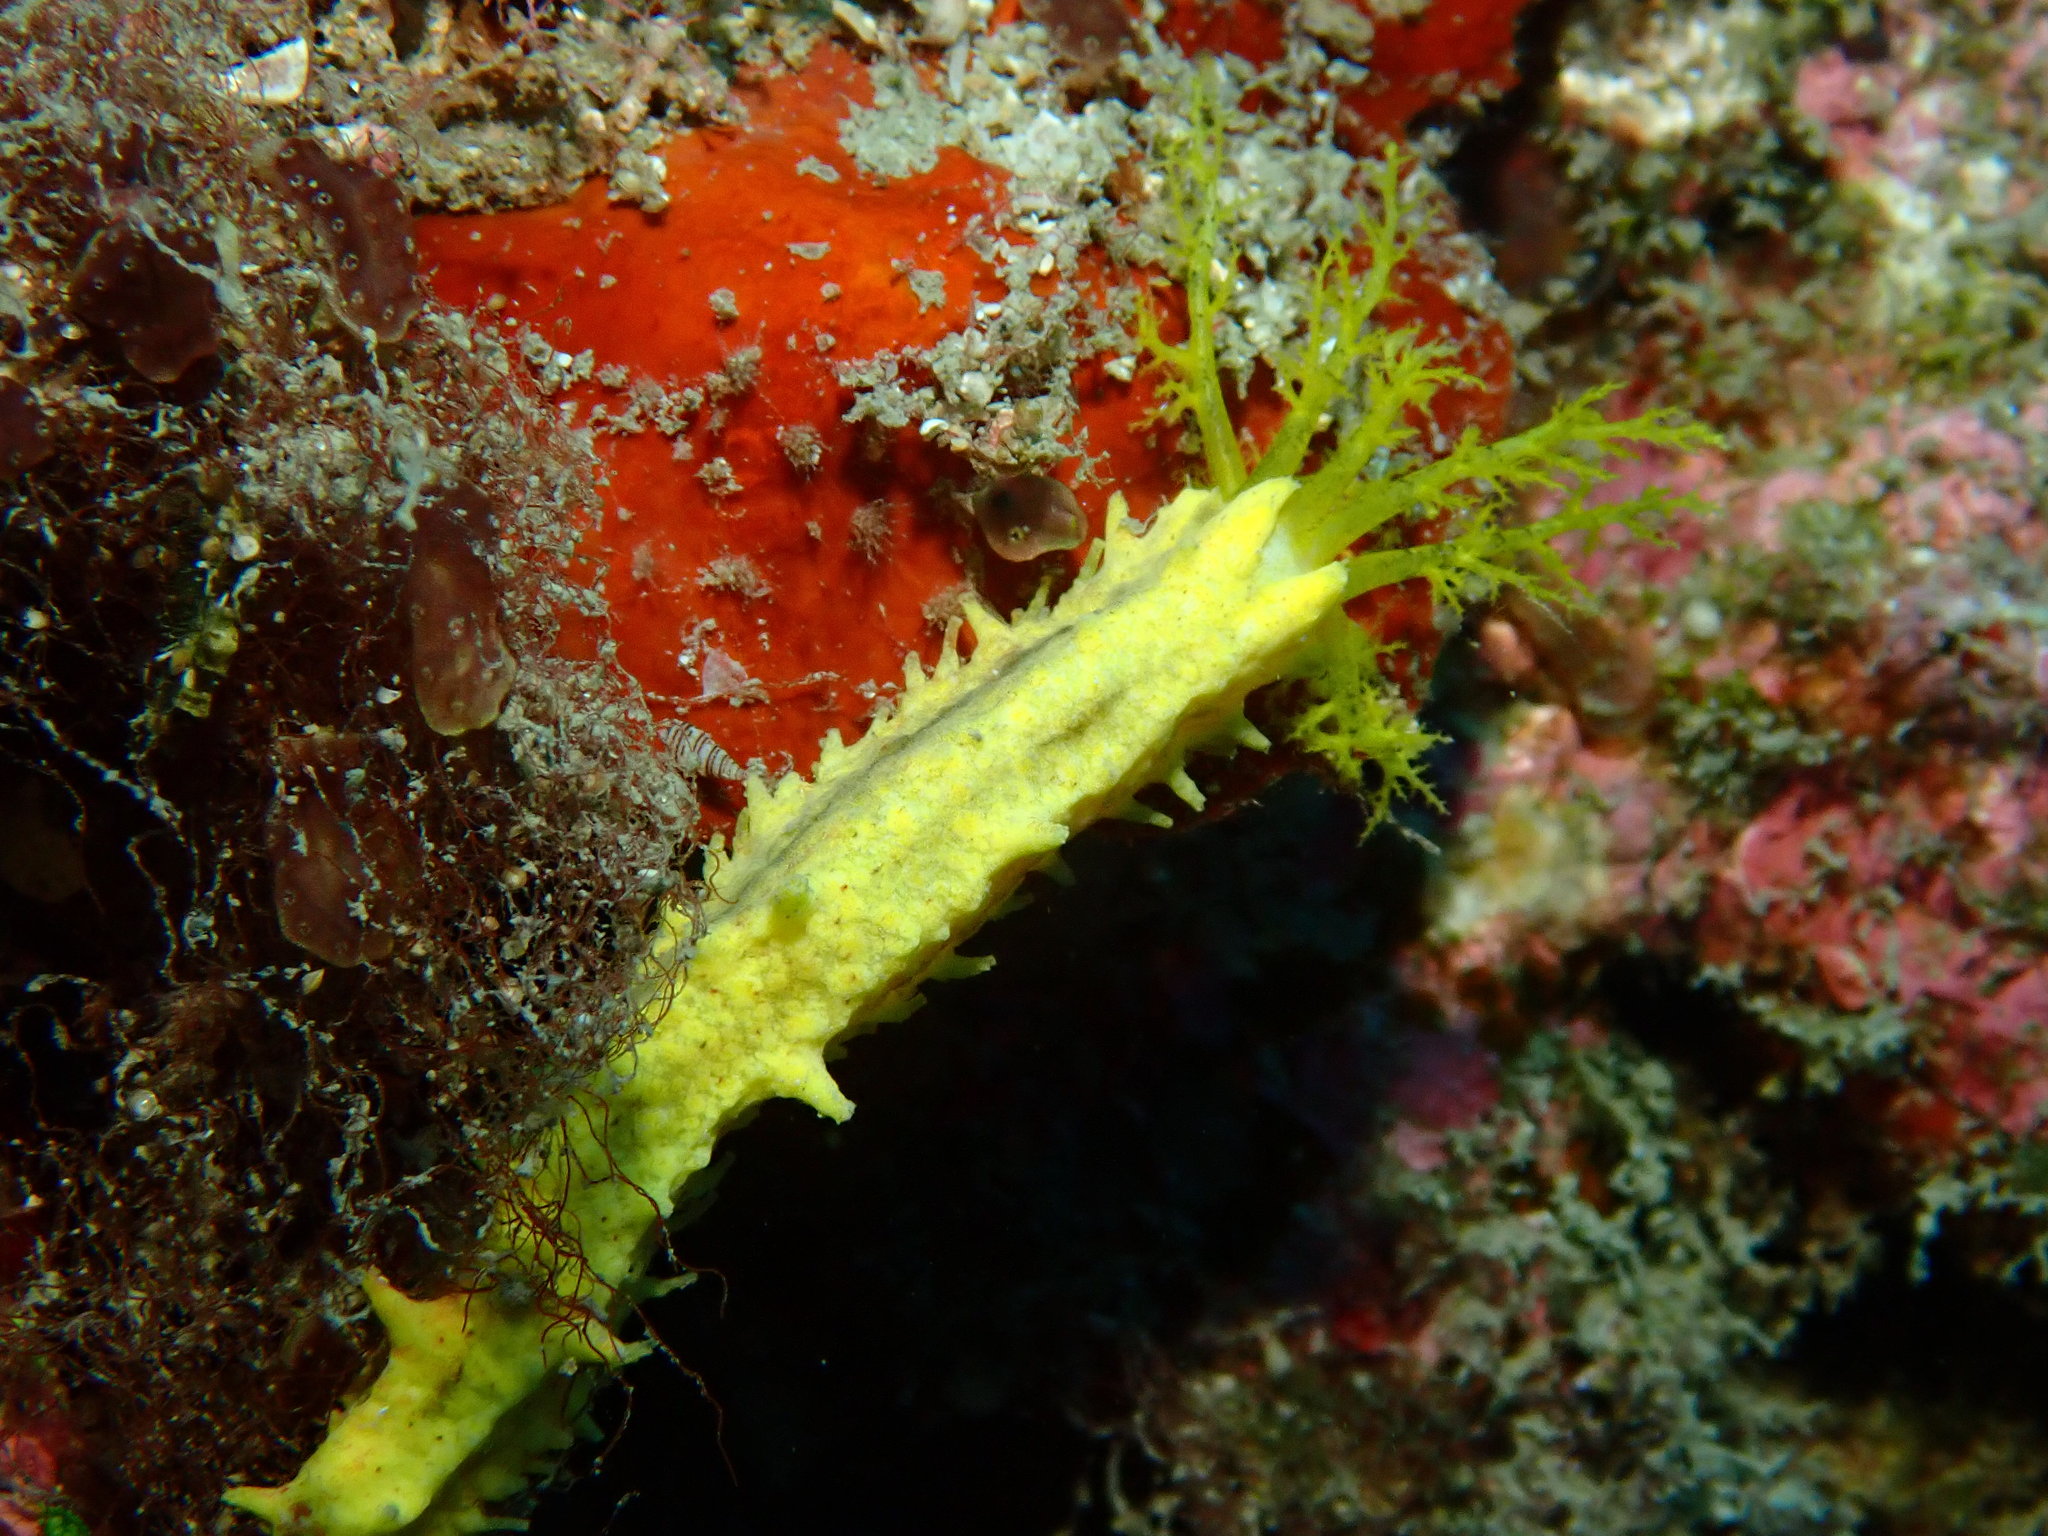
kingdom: Animalia
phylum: Echinodermata
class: Holothuroidea
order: Dendrochirotida
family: Cucumariidae
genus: Colochirus
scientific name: Colochirus robustus
